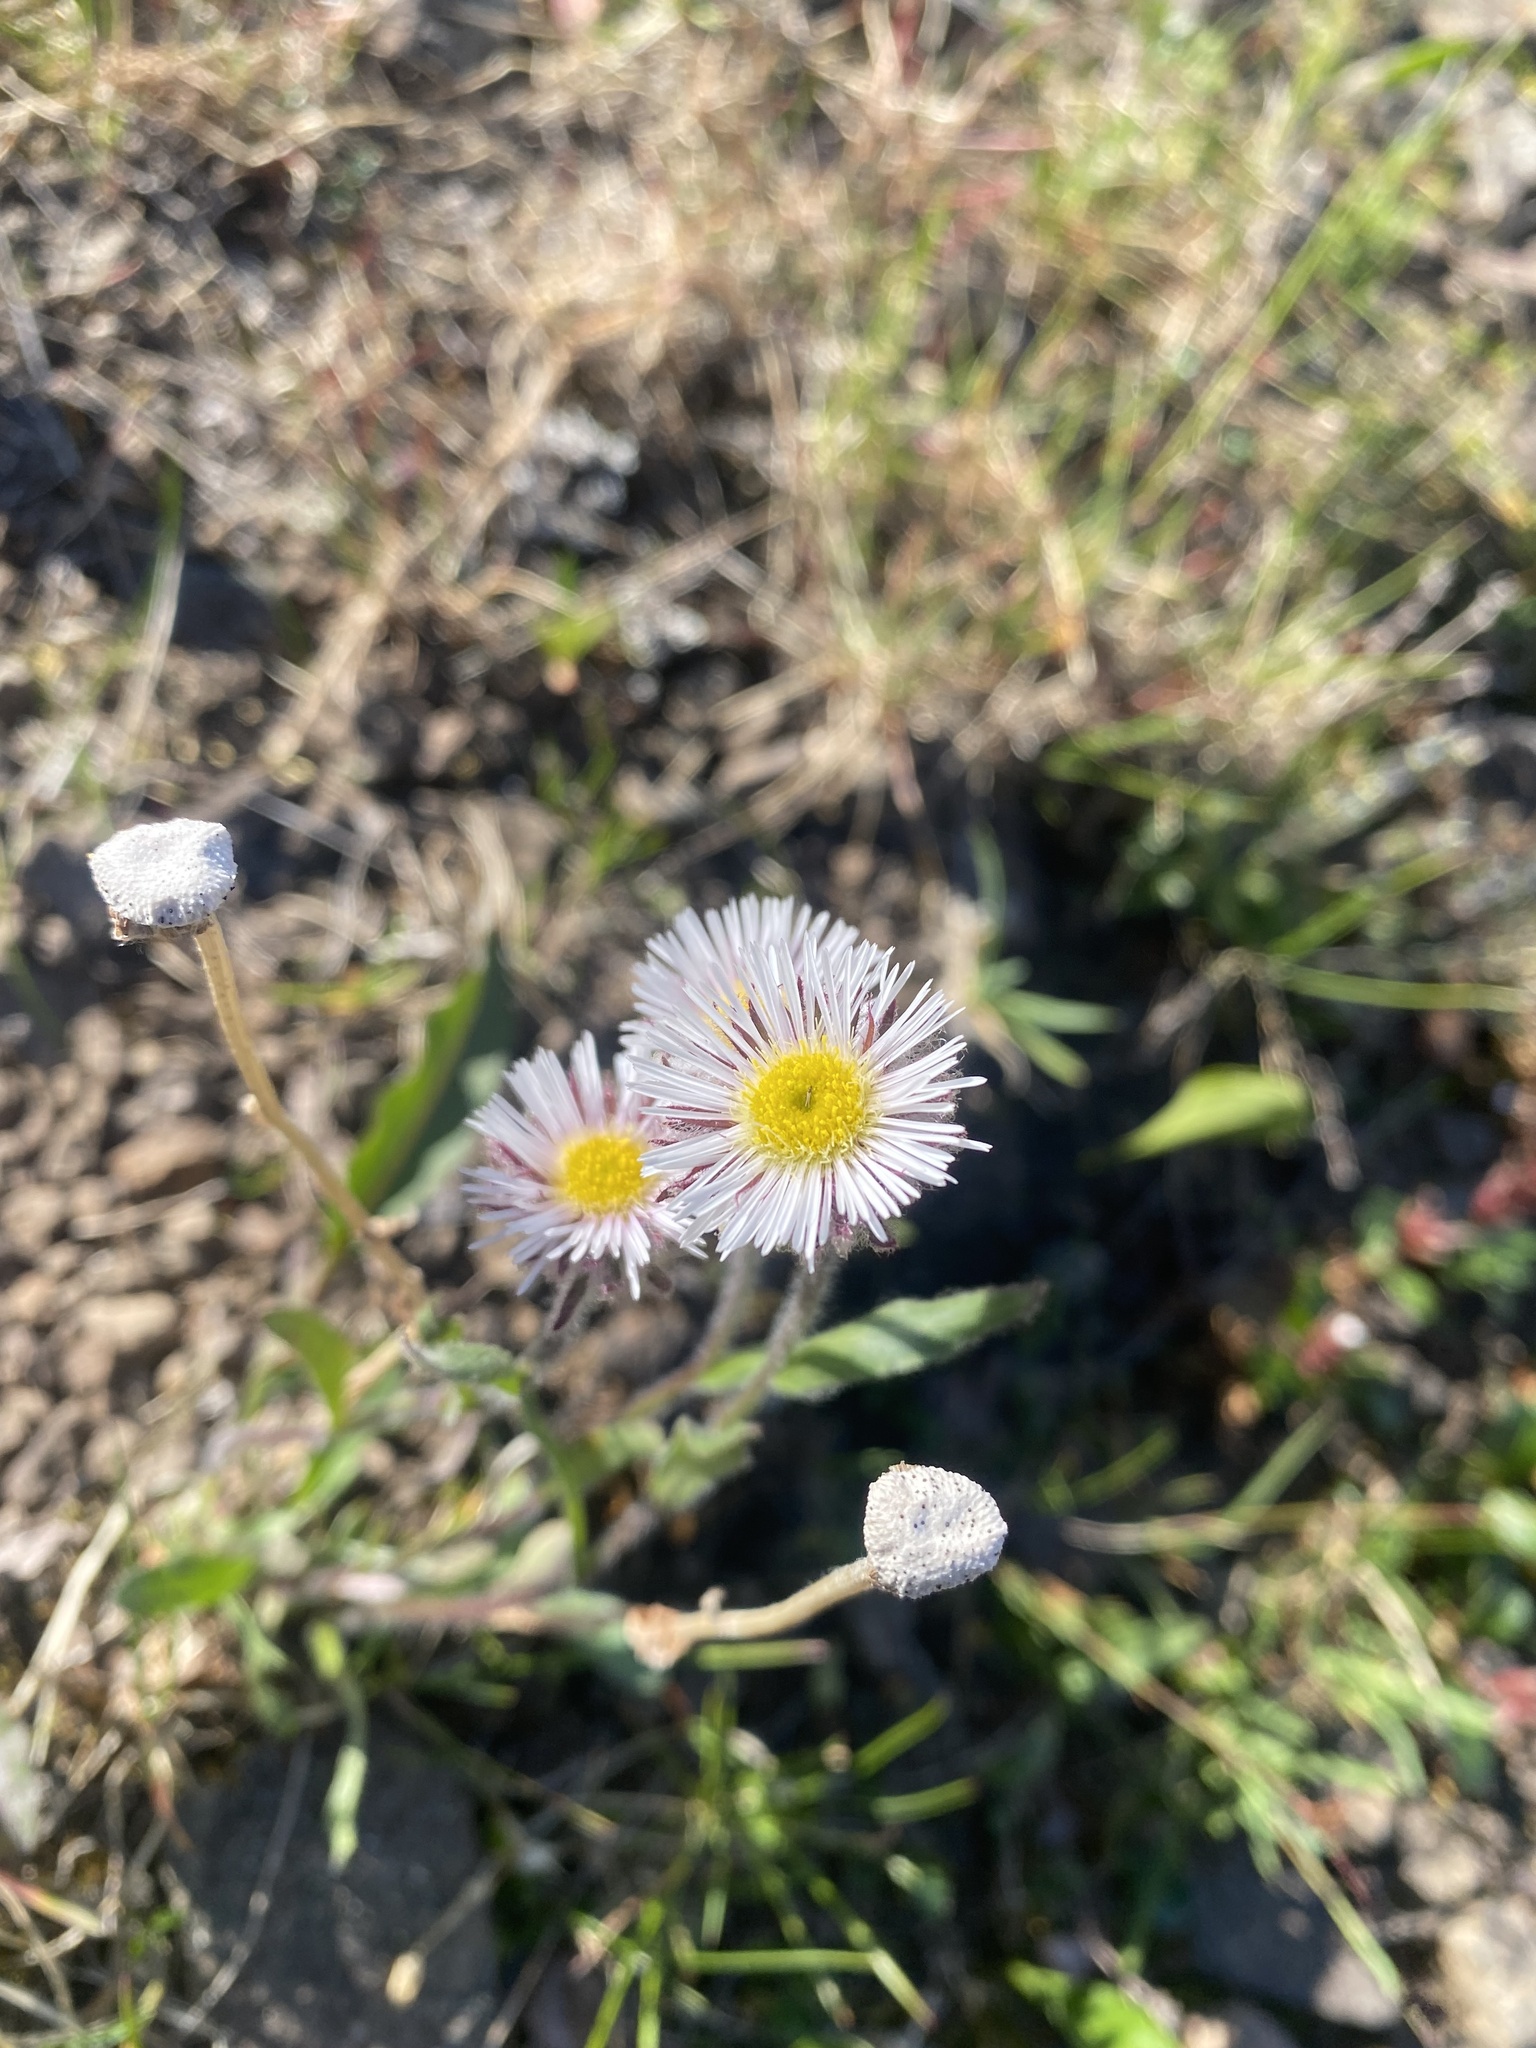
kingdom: Plantae
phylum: Tracheophyta
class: Magnoliopsida
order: Asterales
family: Asteraceae
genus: Erigeron
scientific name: Erigeron eriocalyx
